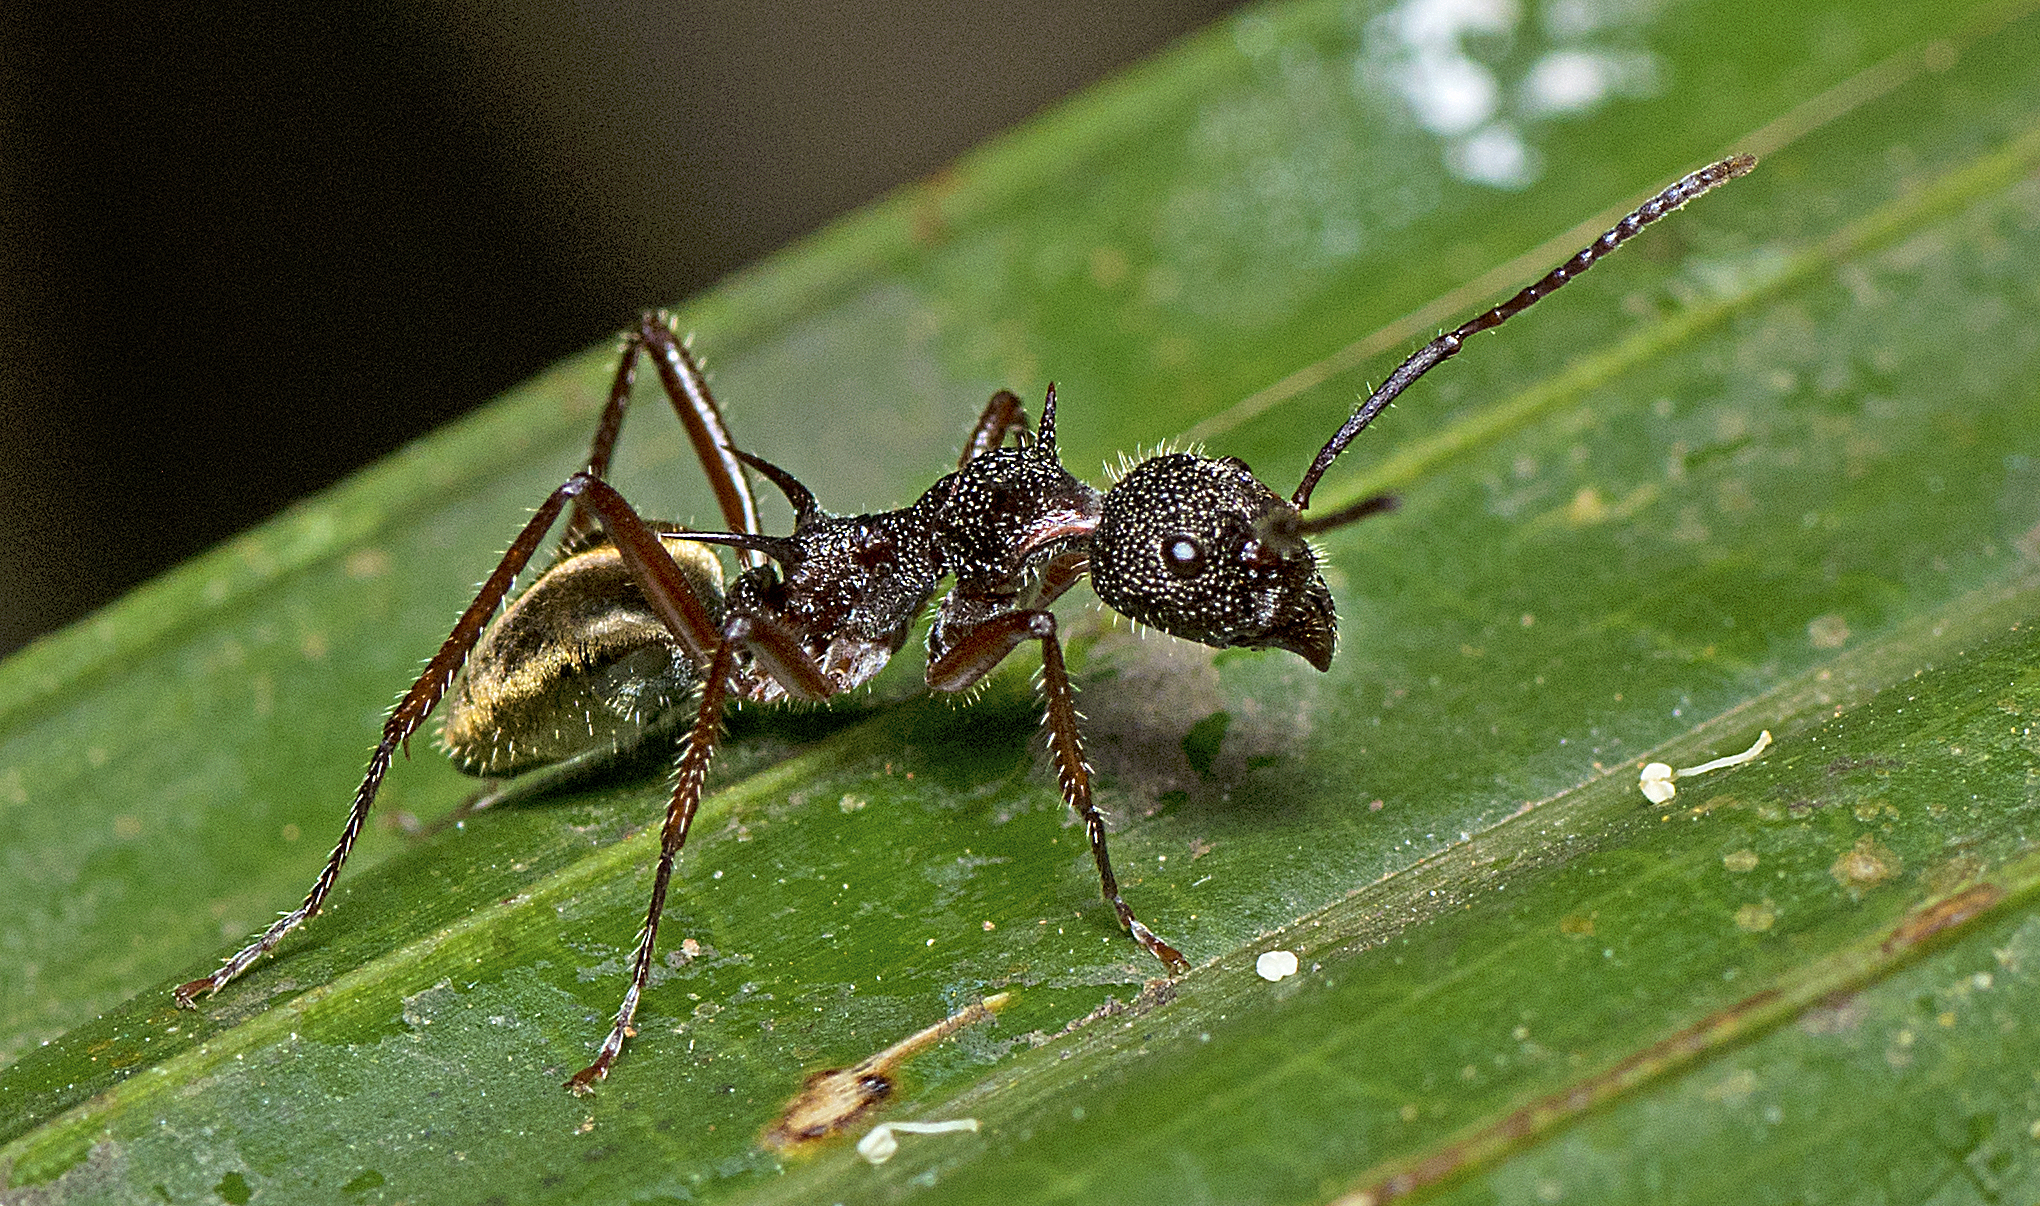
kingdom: Animalia
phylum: Arthropoda
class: Insecta
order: Hymenoptera
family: Formicidae
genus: Dolichoderus
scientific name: Dolichoderus extensispinus
